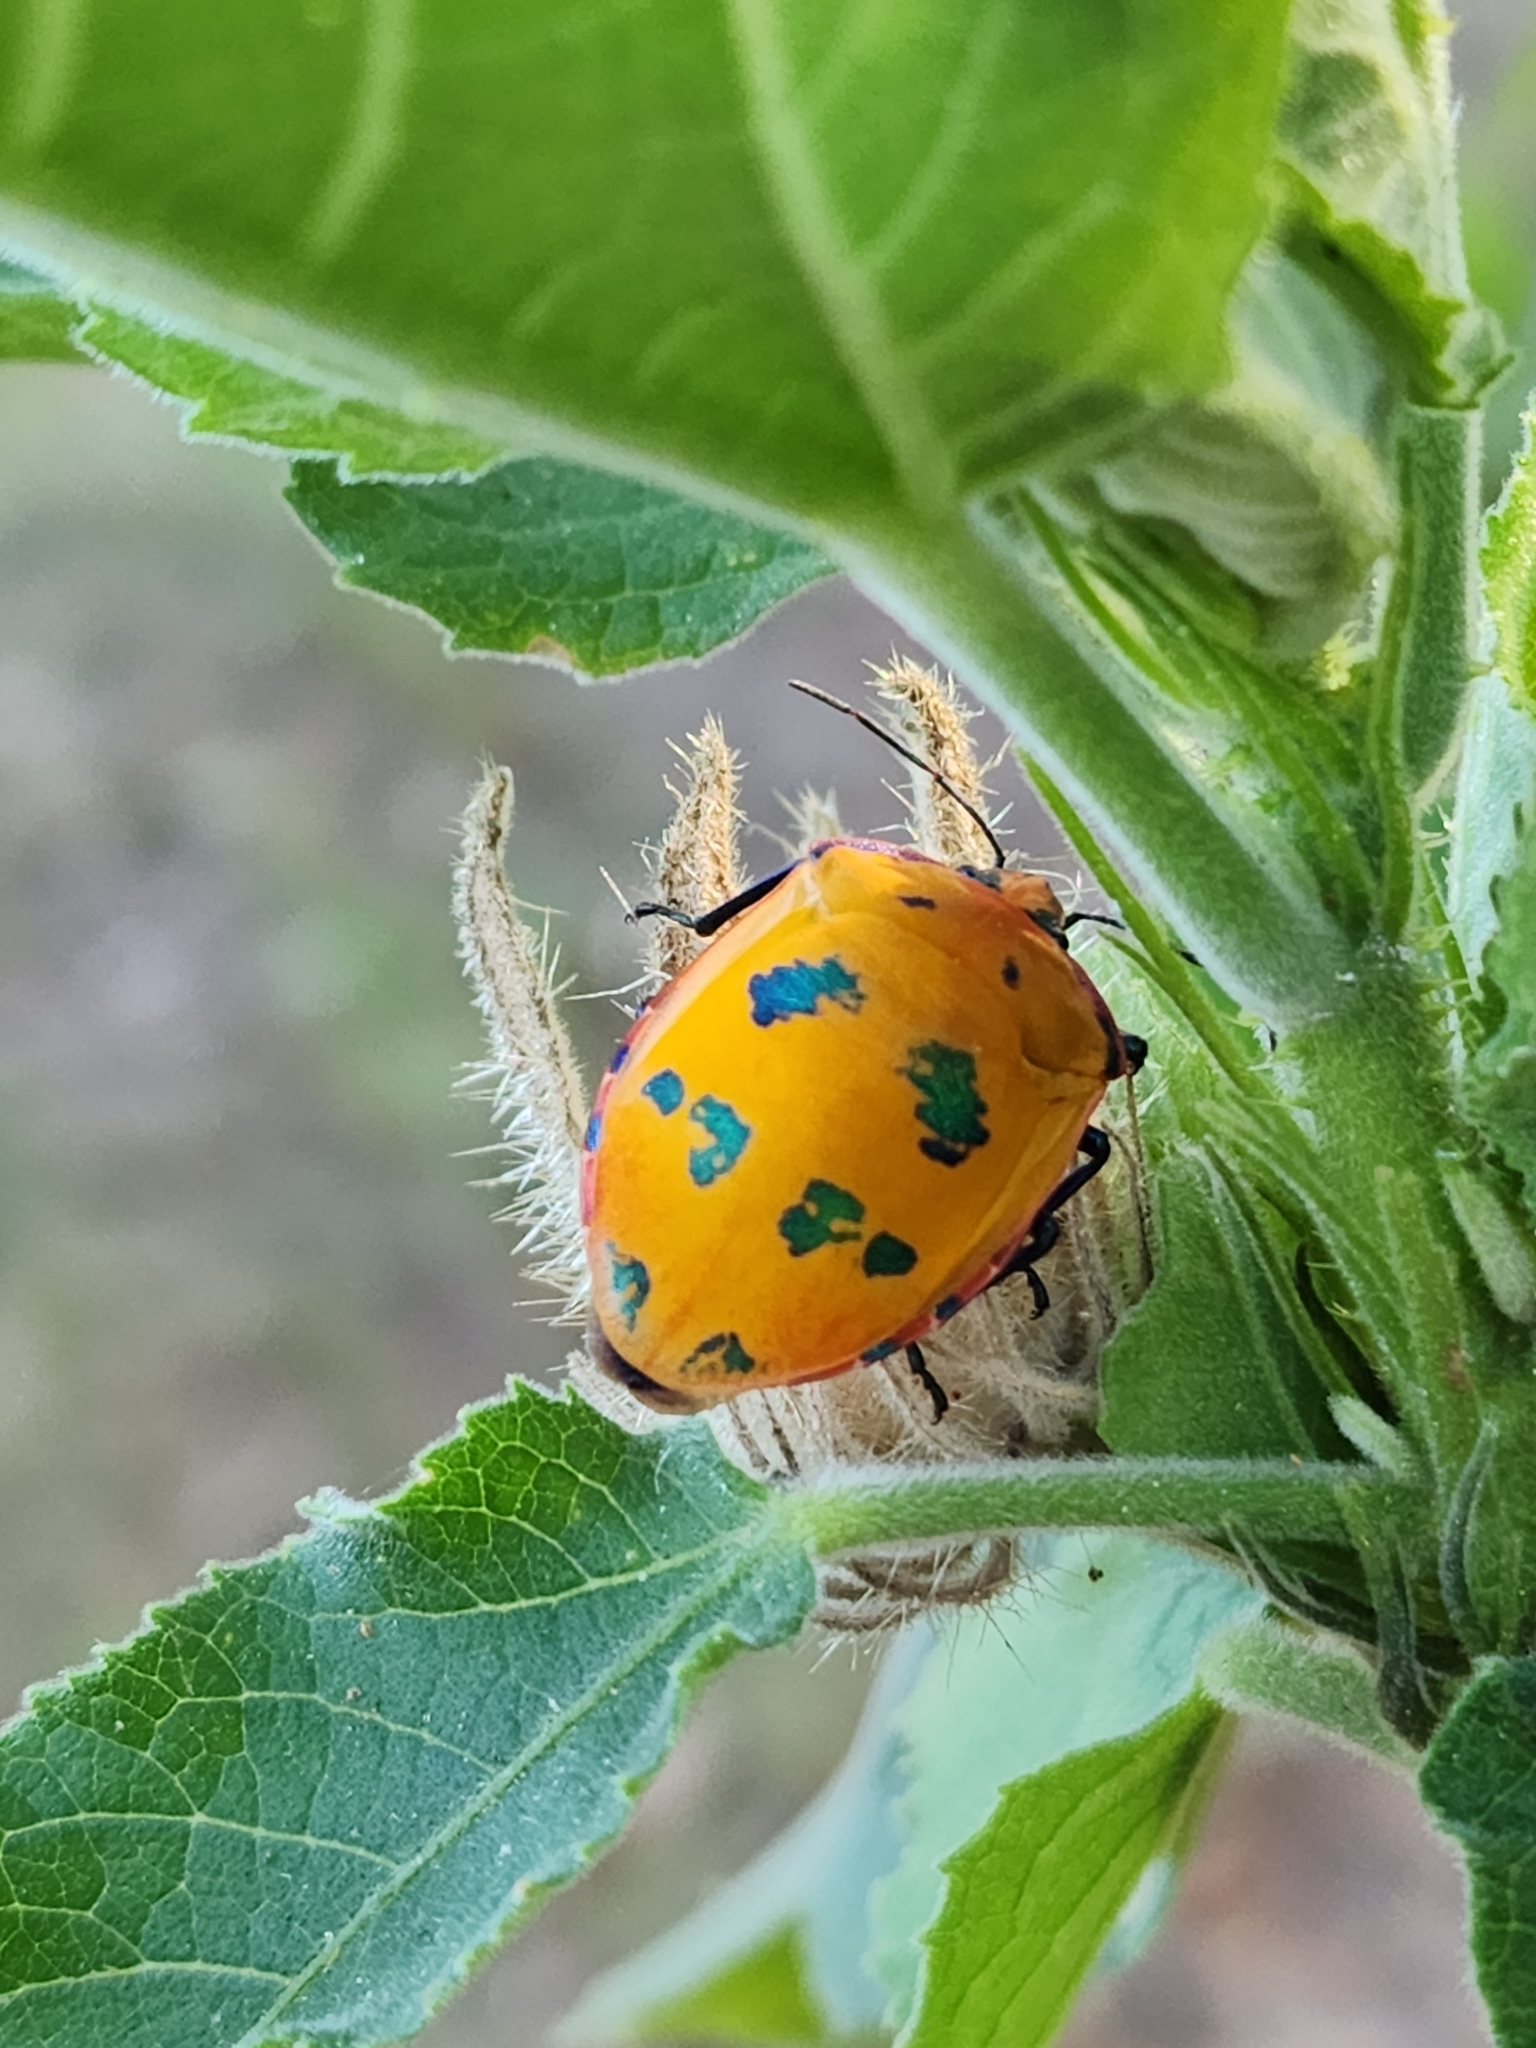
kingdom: Animalia
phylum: Arthropoda
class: Insecta
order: Hemiptera
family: Scutelleridae
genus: Tectocoris
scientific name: Tectocoris diophthalmus
